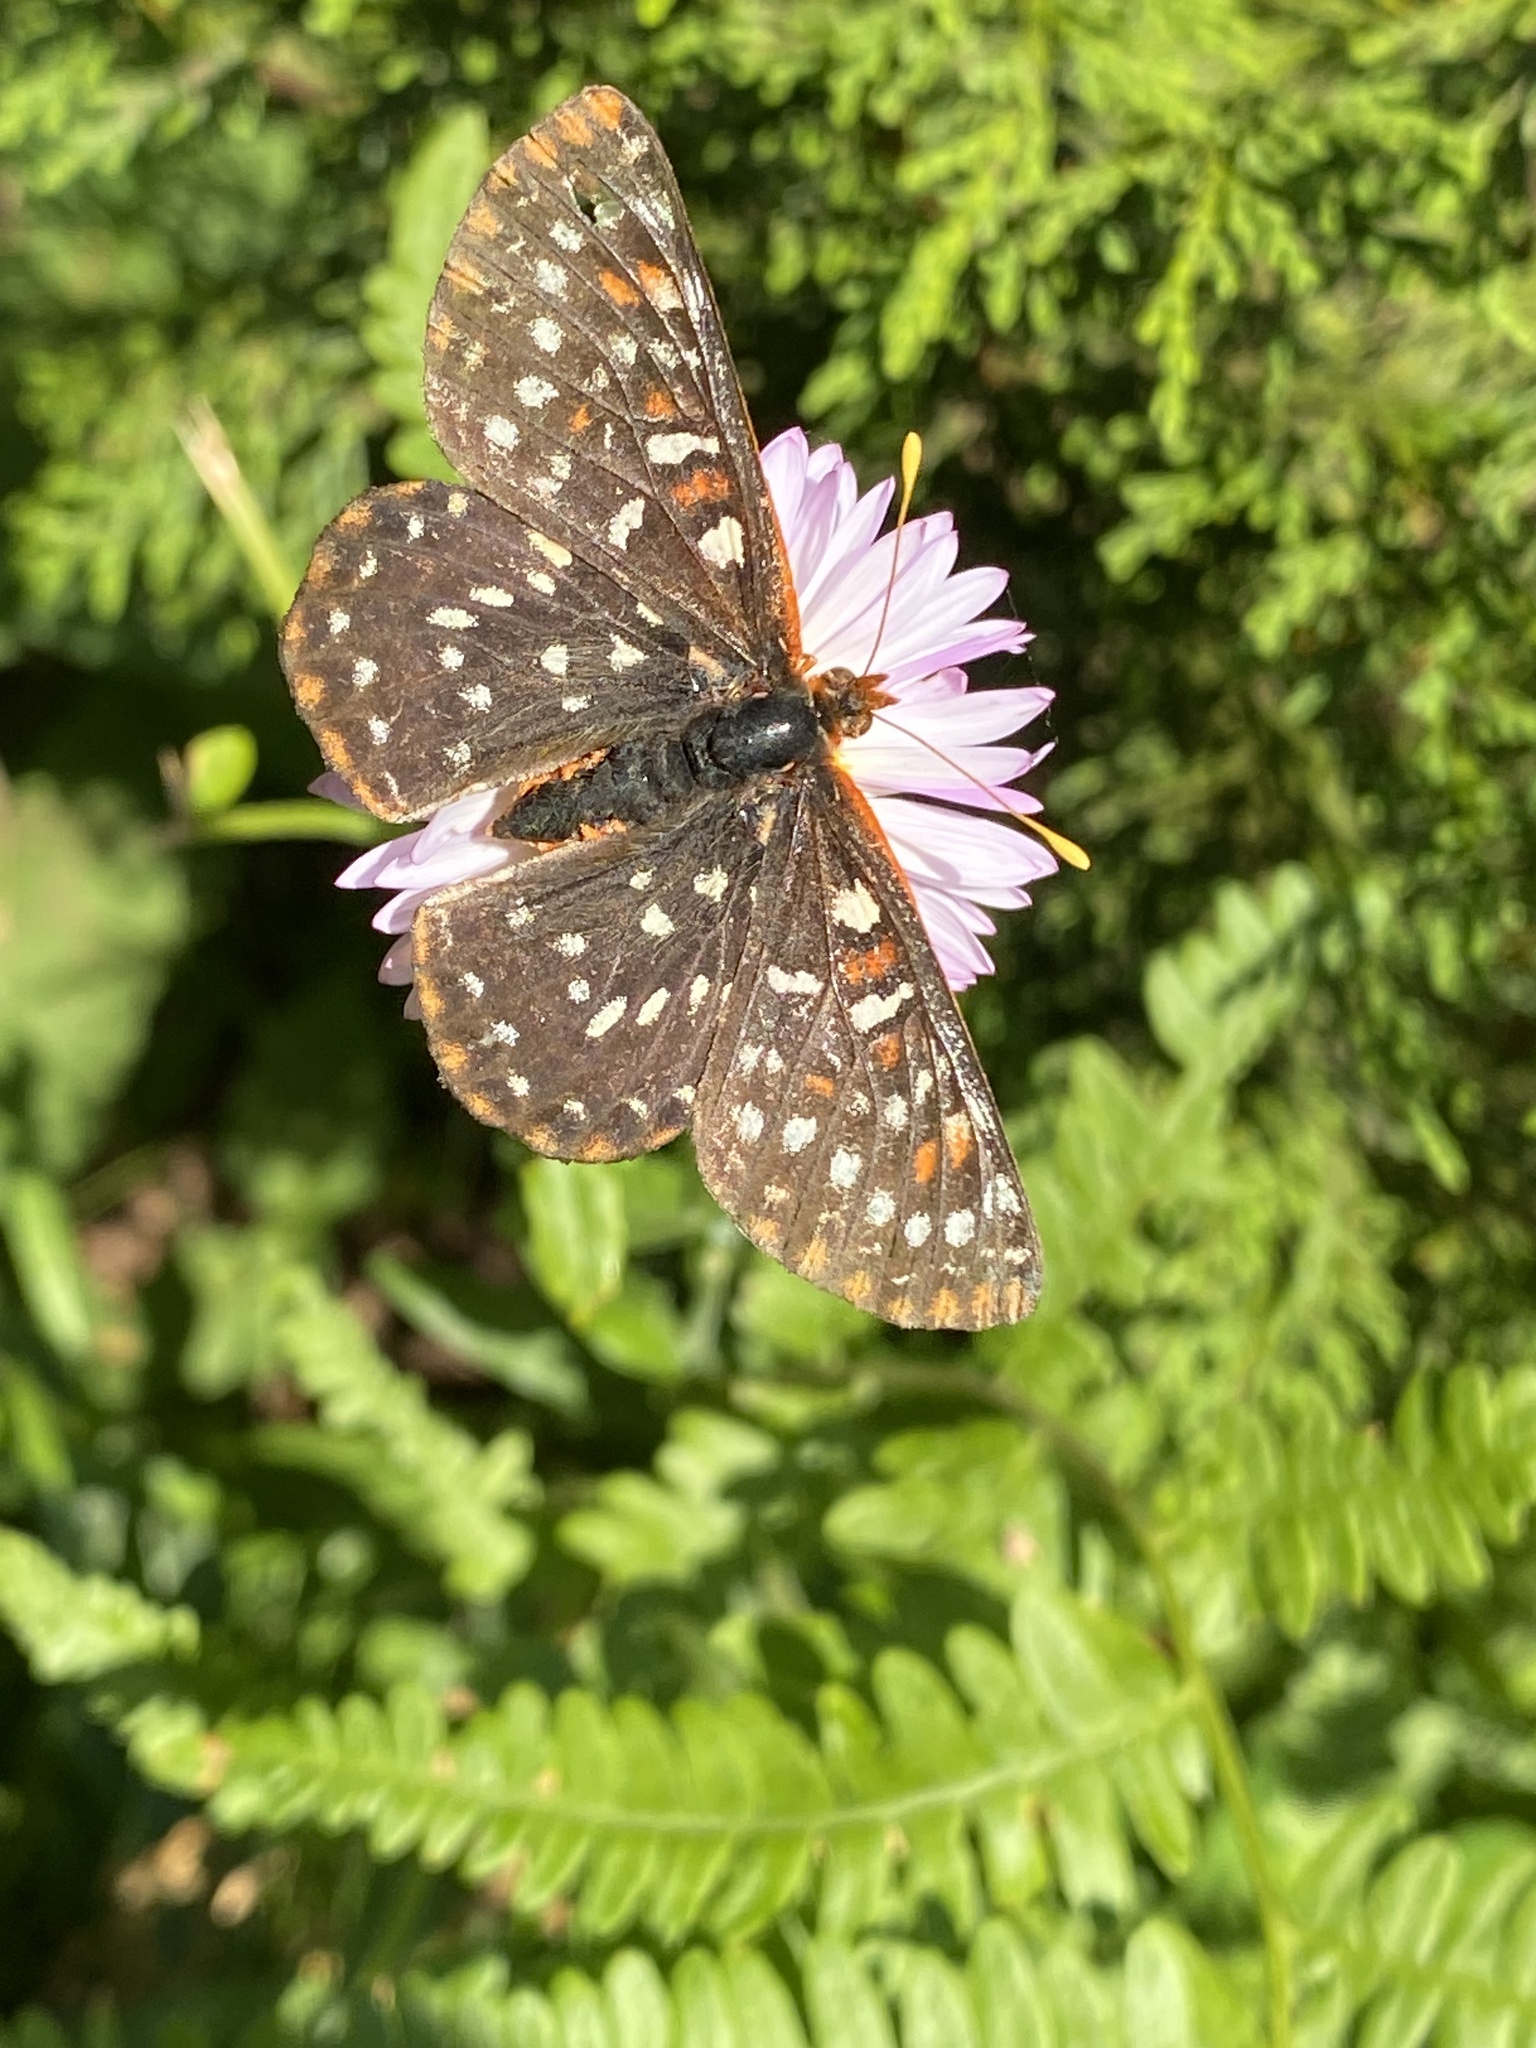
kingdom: Animalia
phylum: Arthropoda
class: Insecta
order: Lepidoptera
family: Nymphalidae
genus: Occidryas
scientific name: Occidryas colon
